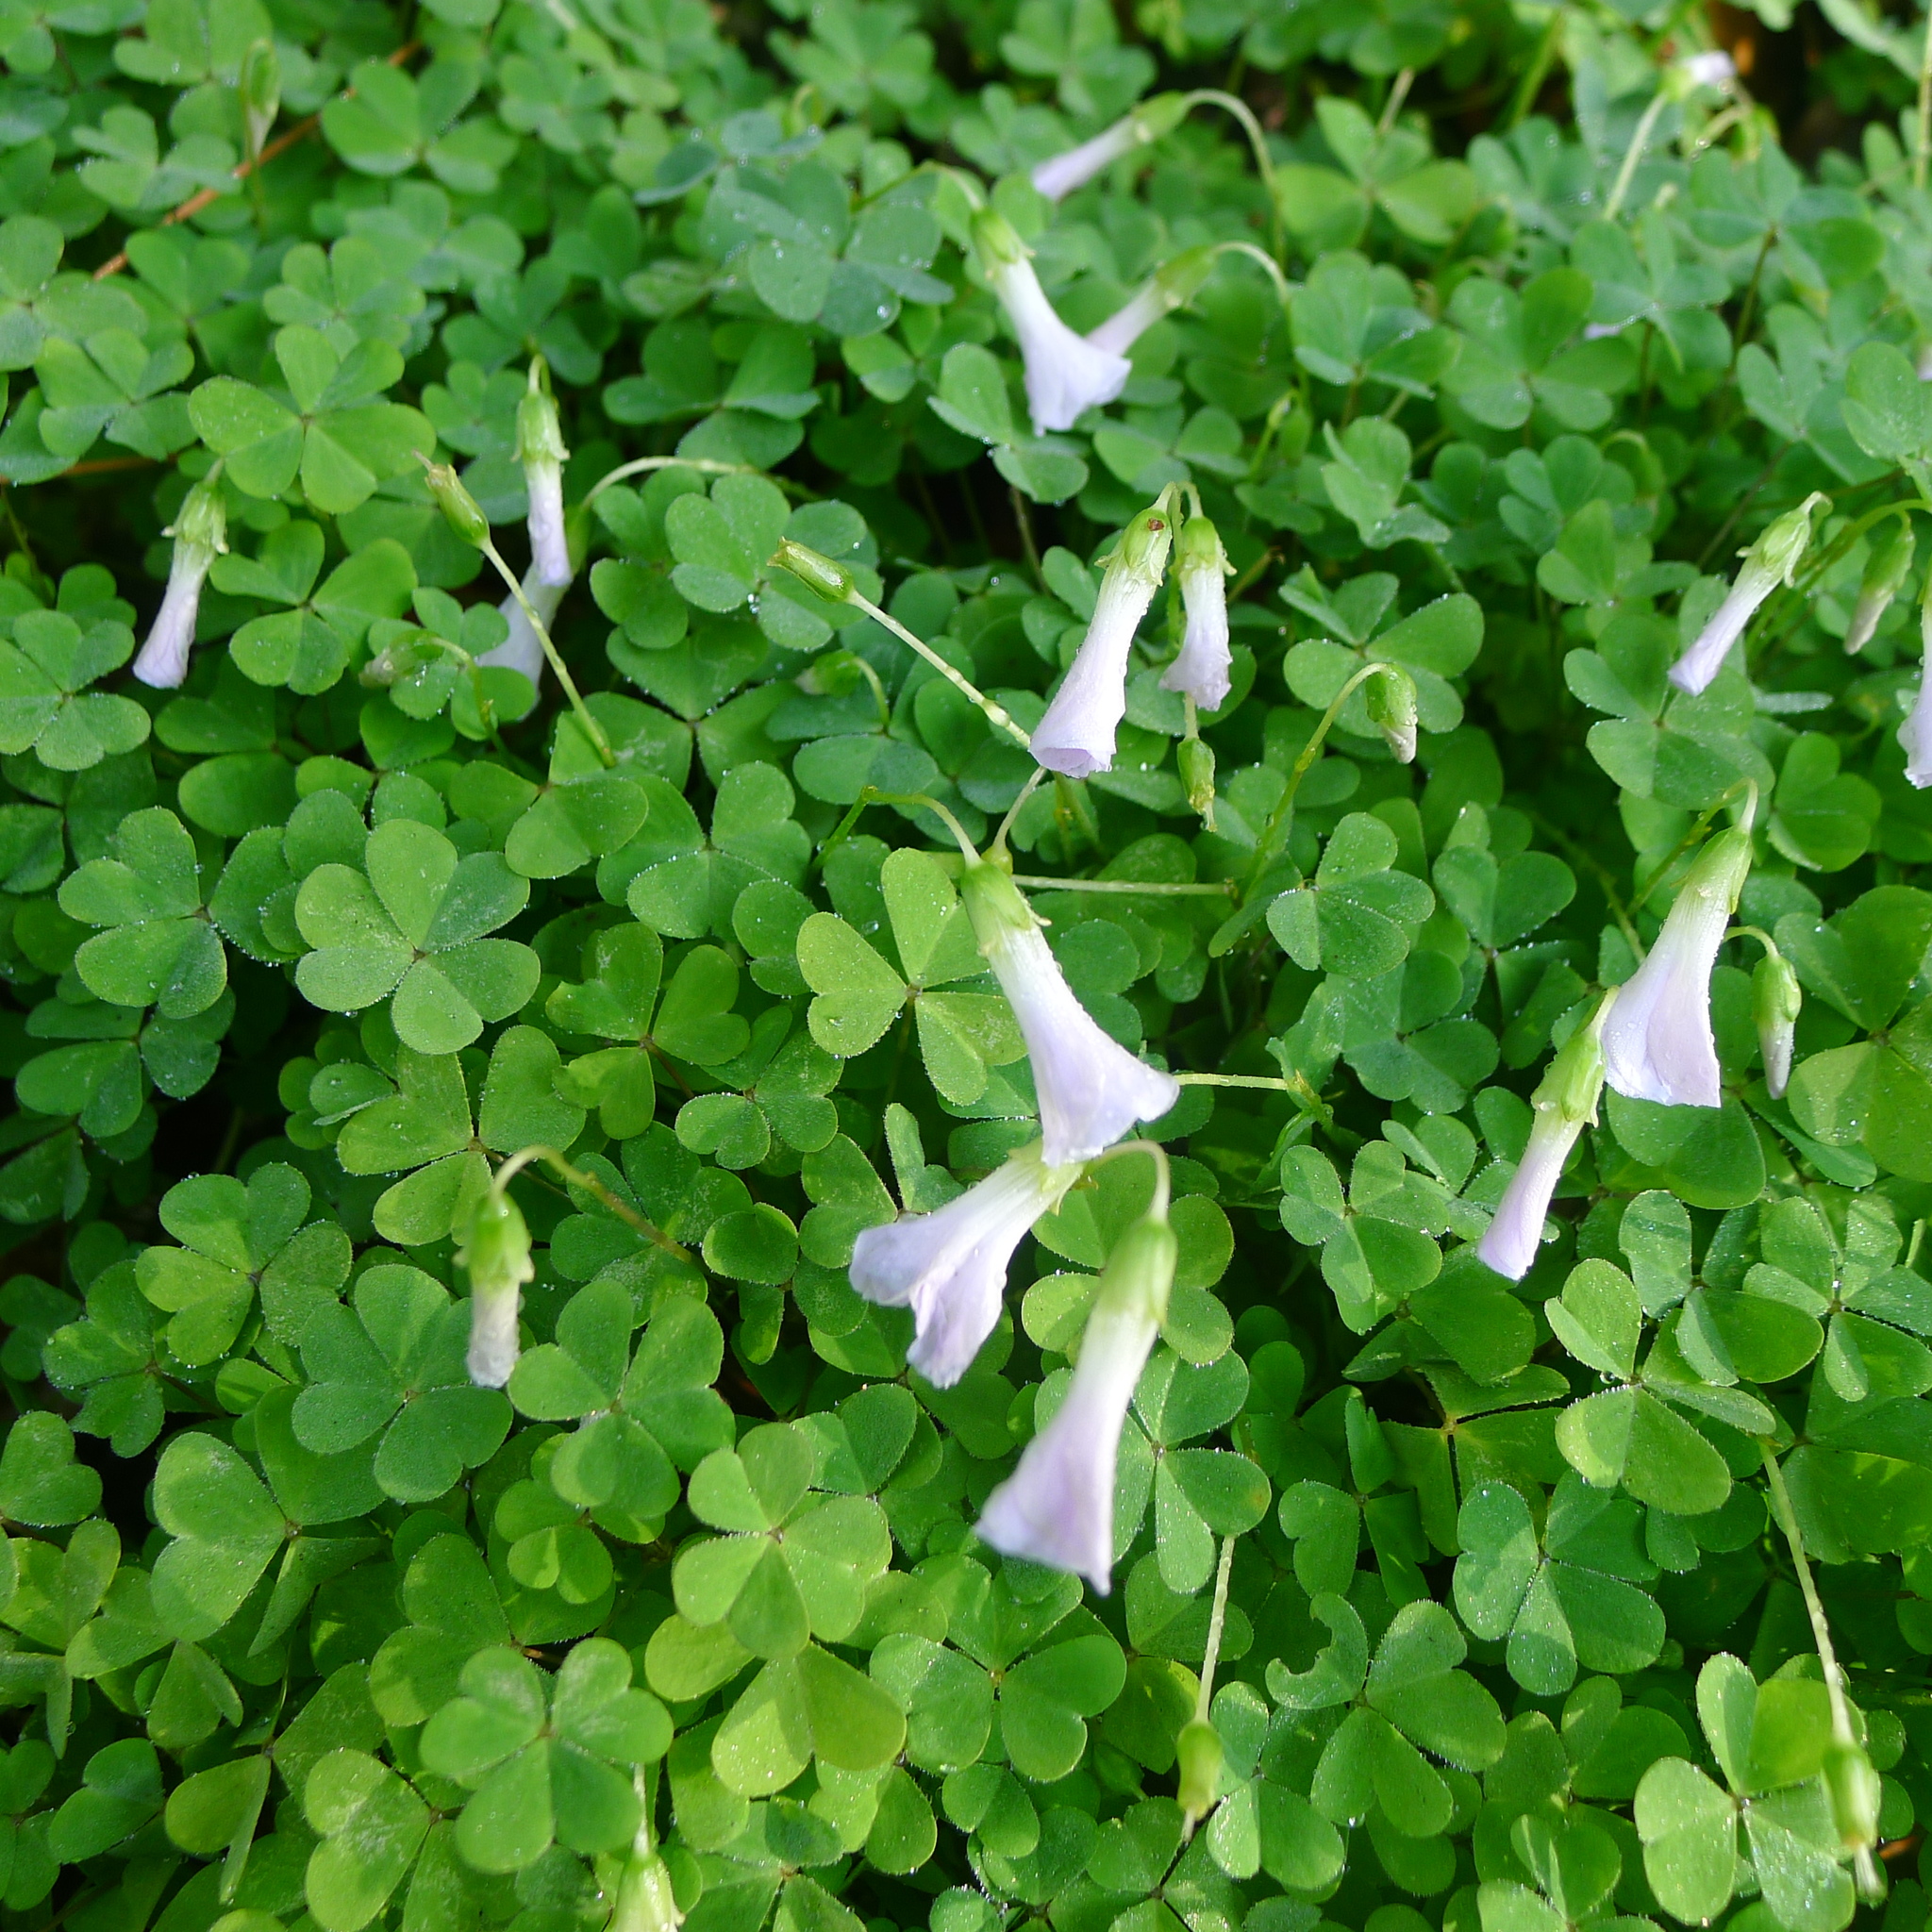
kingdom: Plantae
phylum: Tracheophyta
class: Magnoliopsida
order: Oxalidales
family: Oxalidaceae
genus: Oxalis
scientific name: Oxalis incarnata
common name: Pale pink-sorrel
